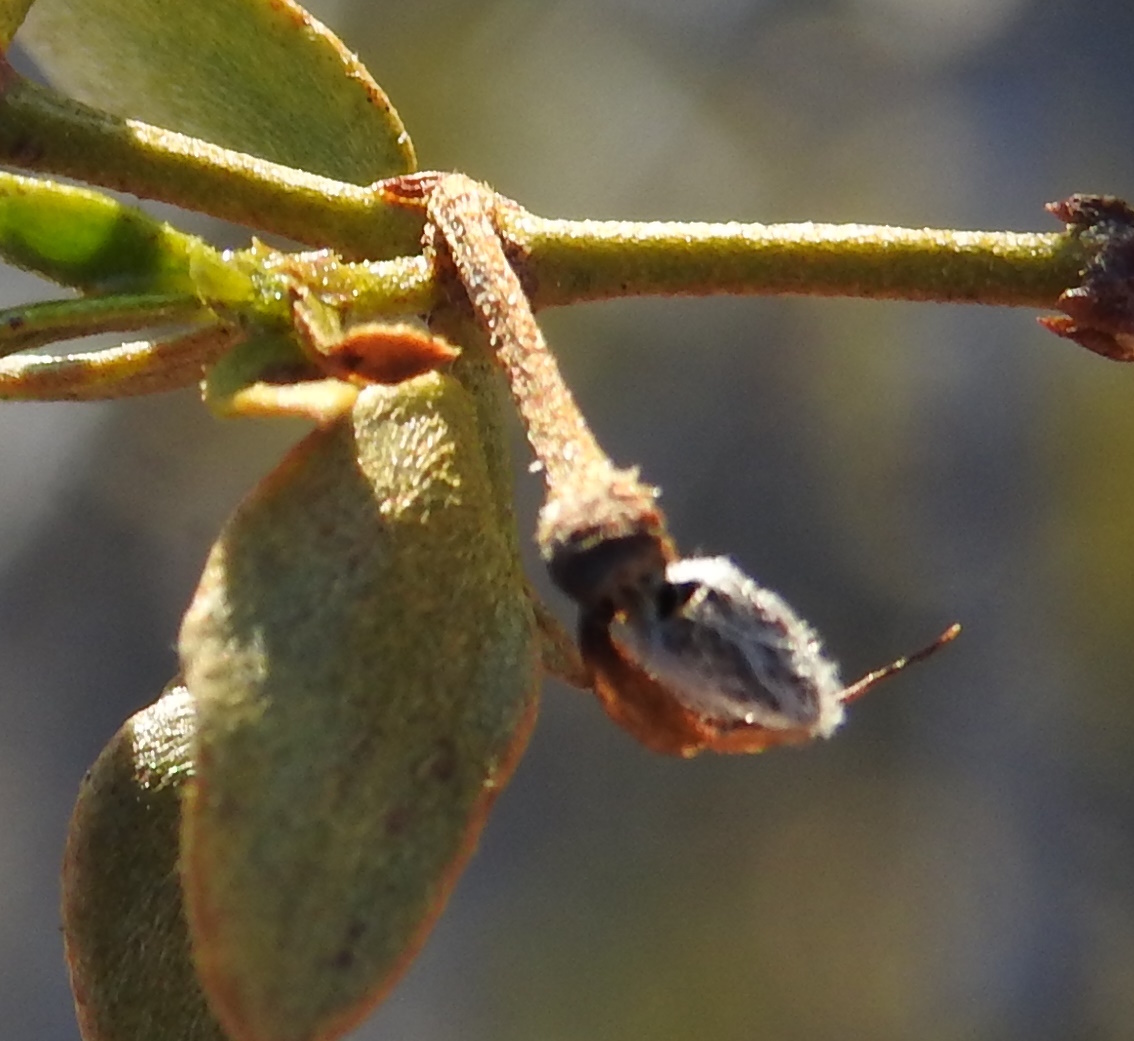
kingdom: Animalia
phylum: Arthropoda
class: Insecta
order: Diptera
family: Cecidomyiidae
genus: Asphondylia
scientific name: Asphondylia florea
